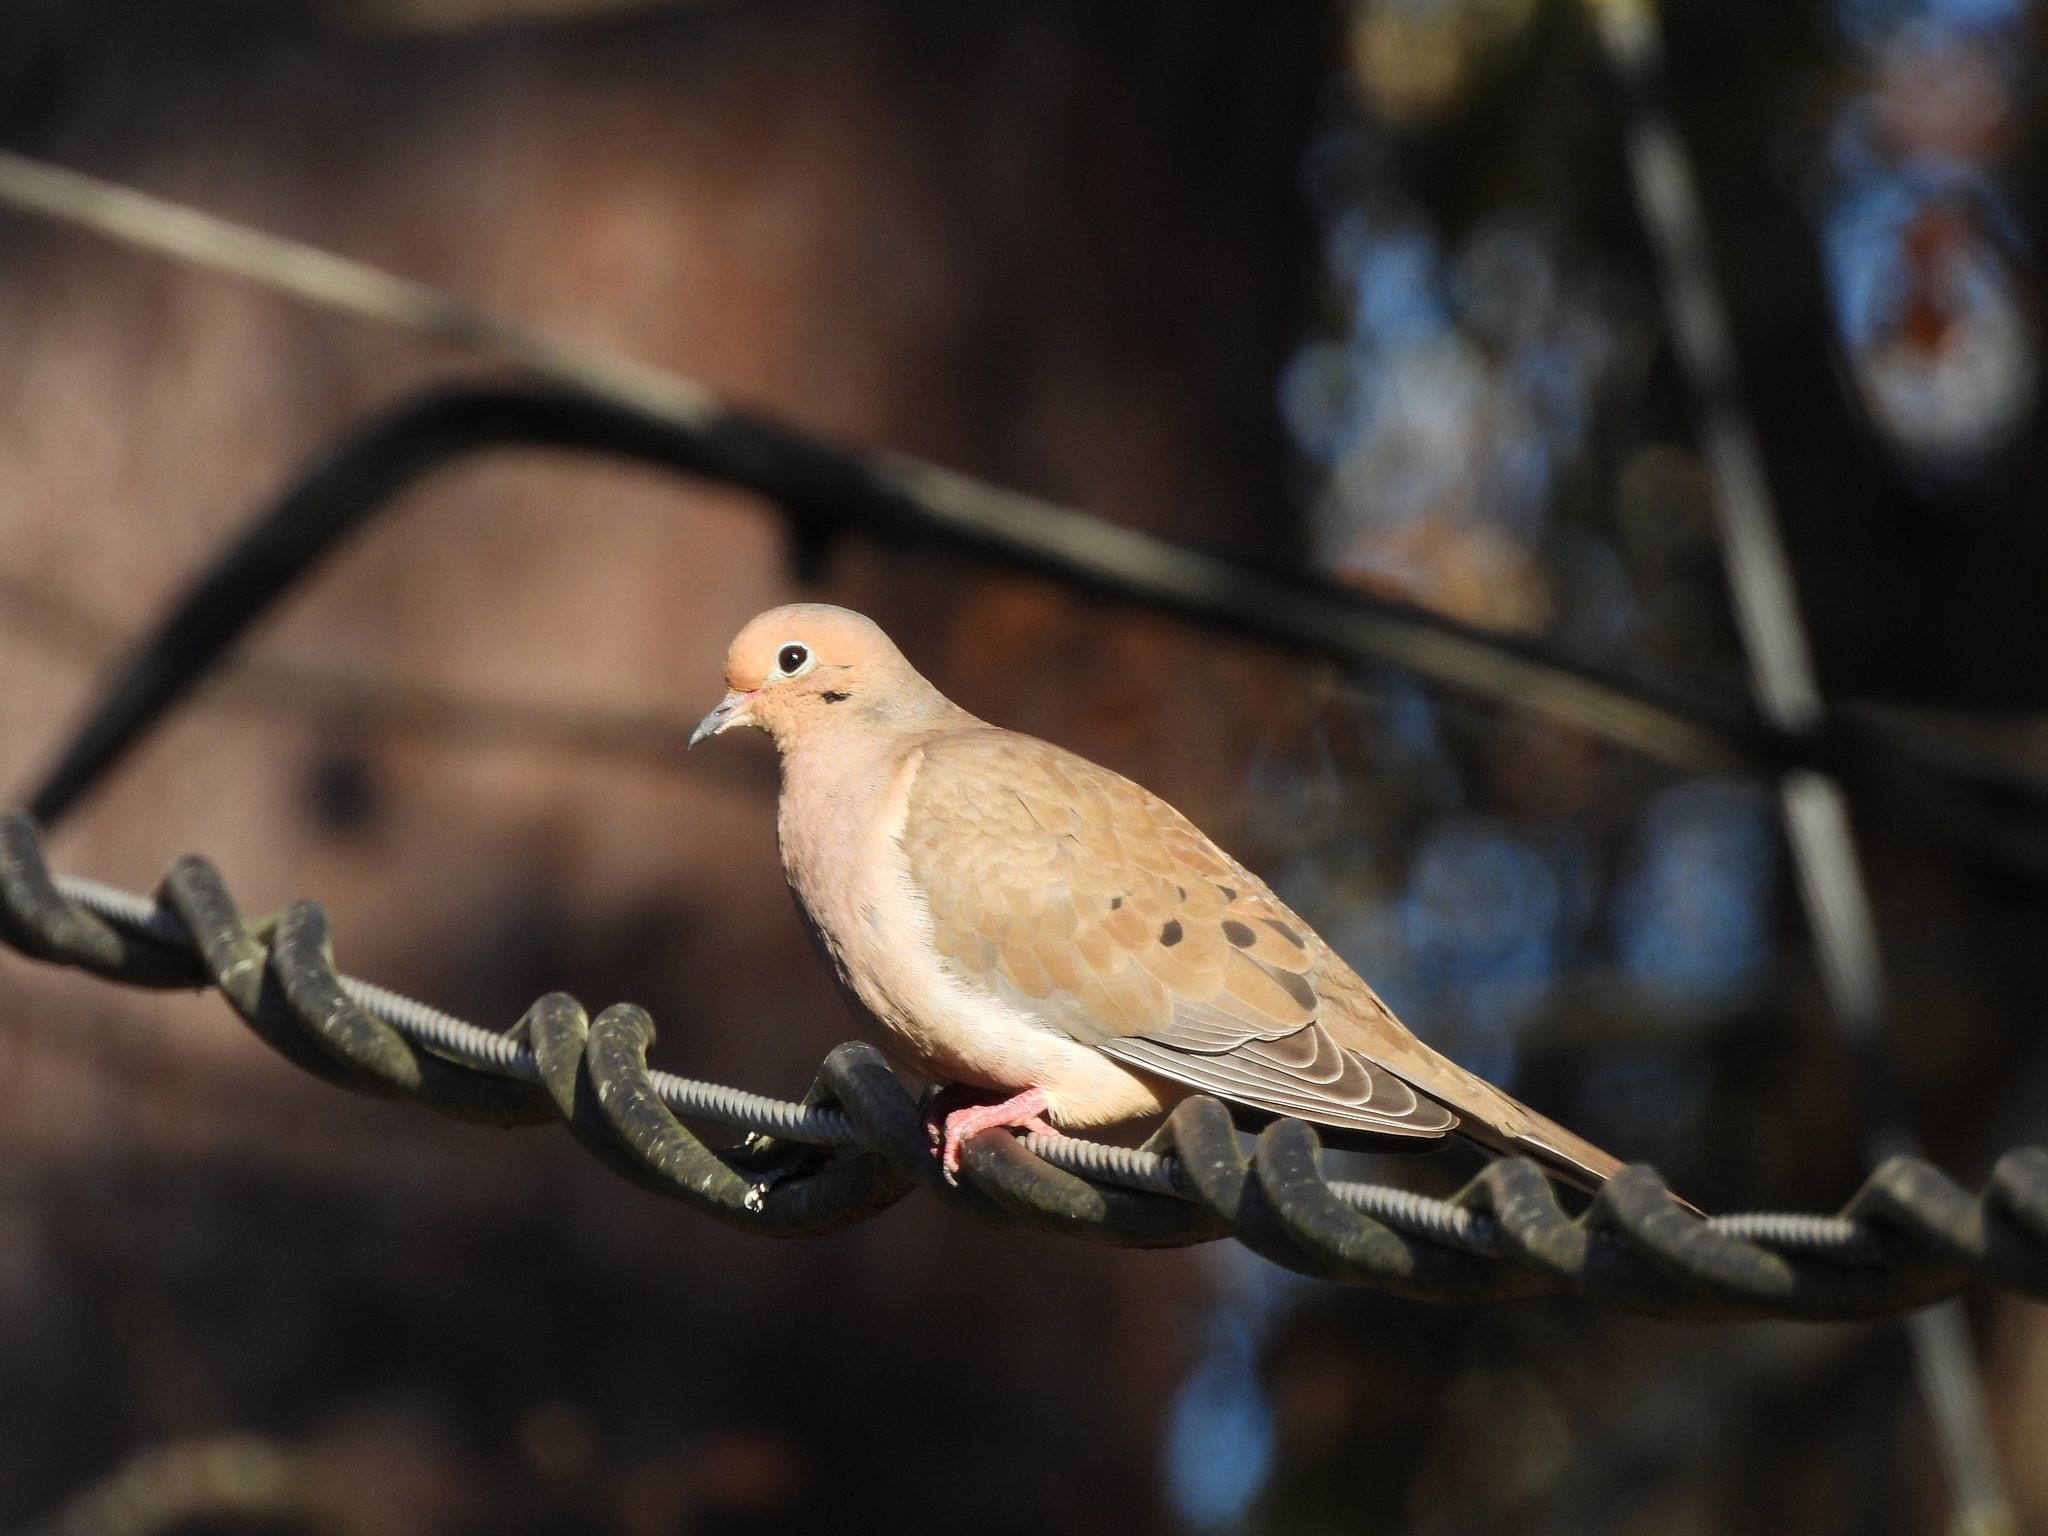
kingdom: Animalia
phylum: Chordata
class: Aves
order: Columbiformes
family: Columbidae
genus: Zenaida
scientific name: Zenaida macroura
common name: Mourning dove
